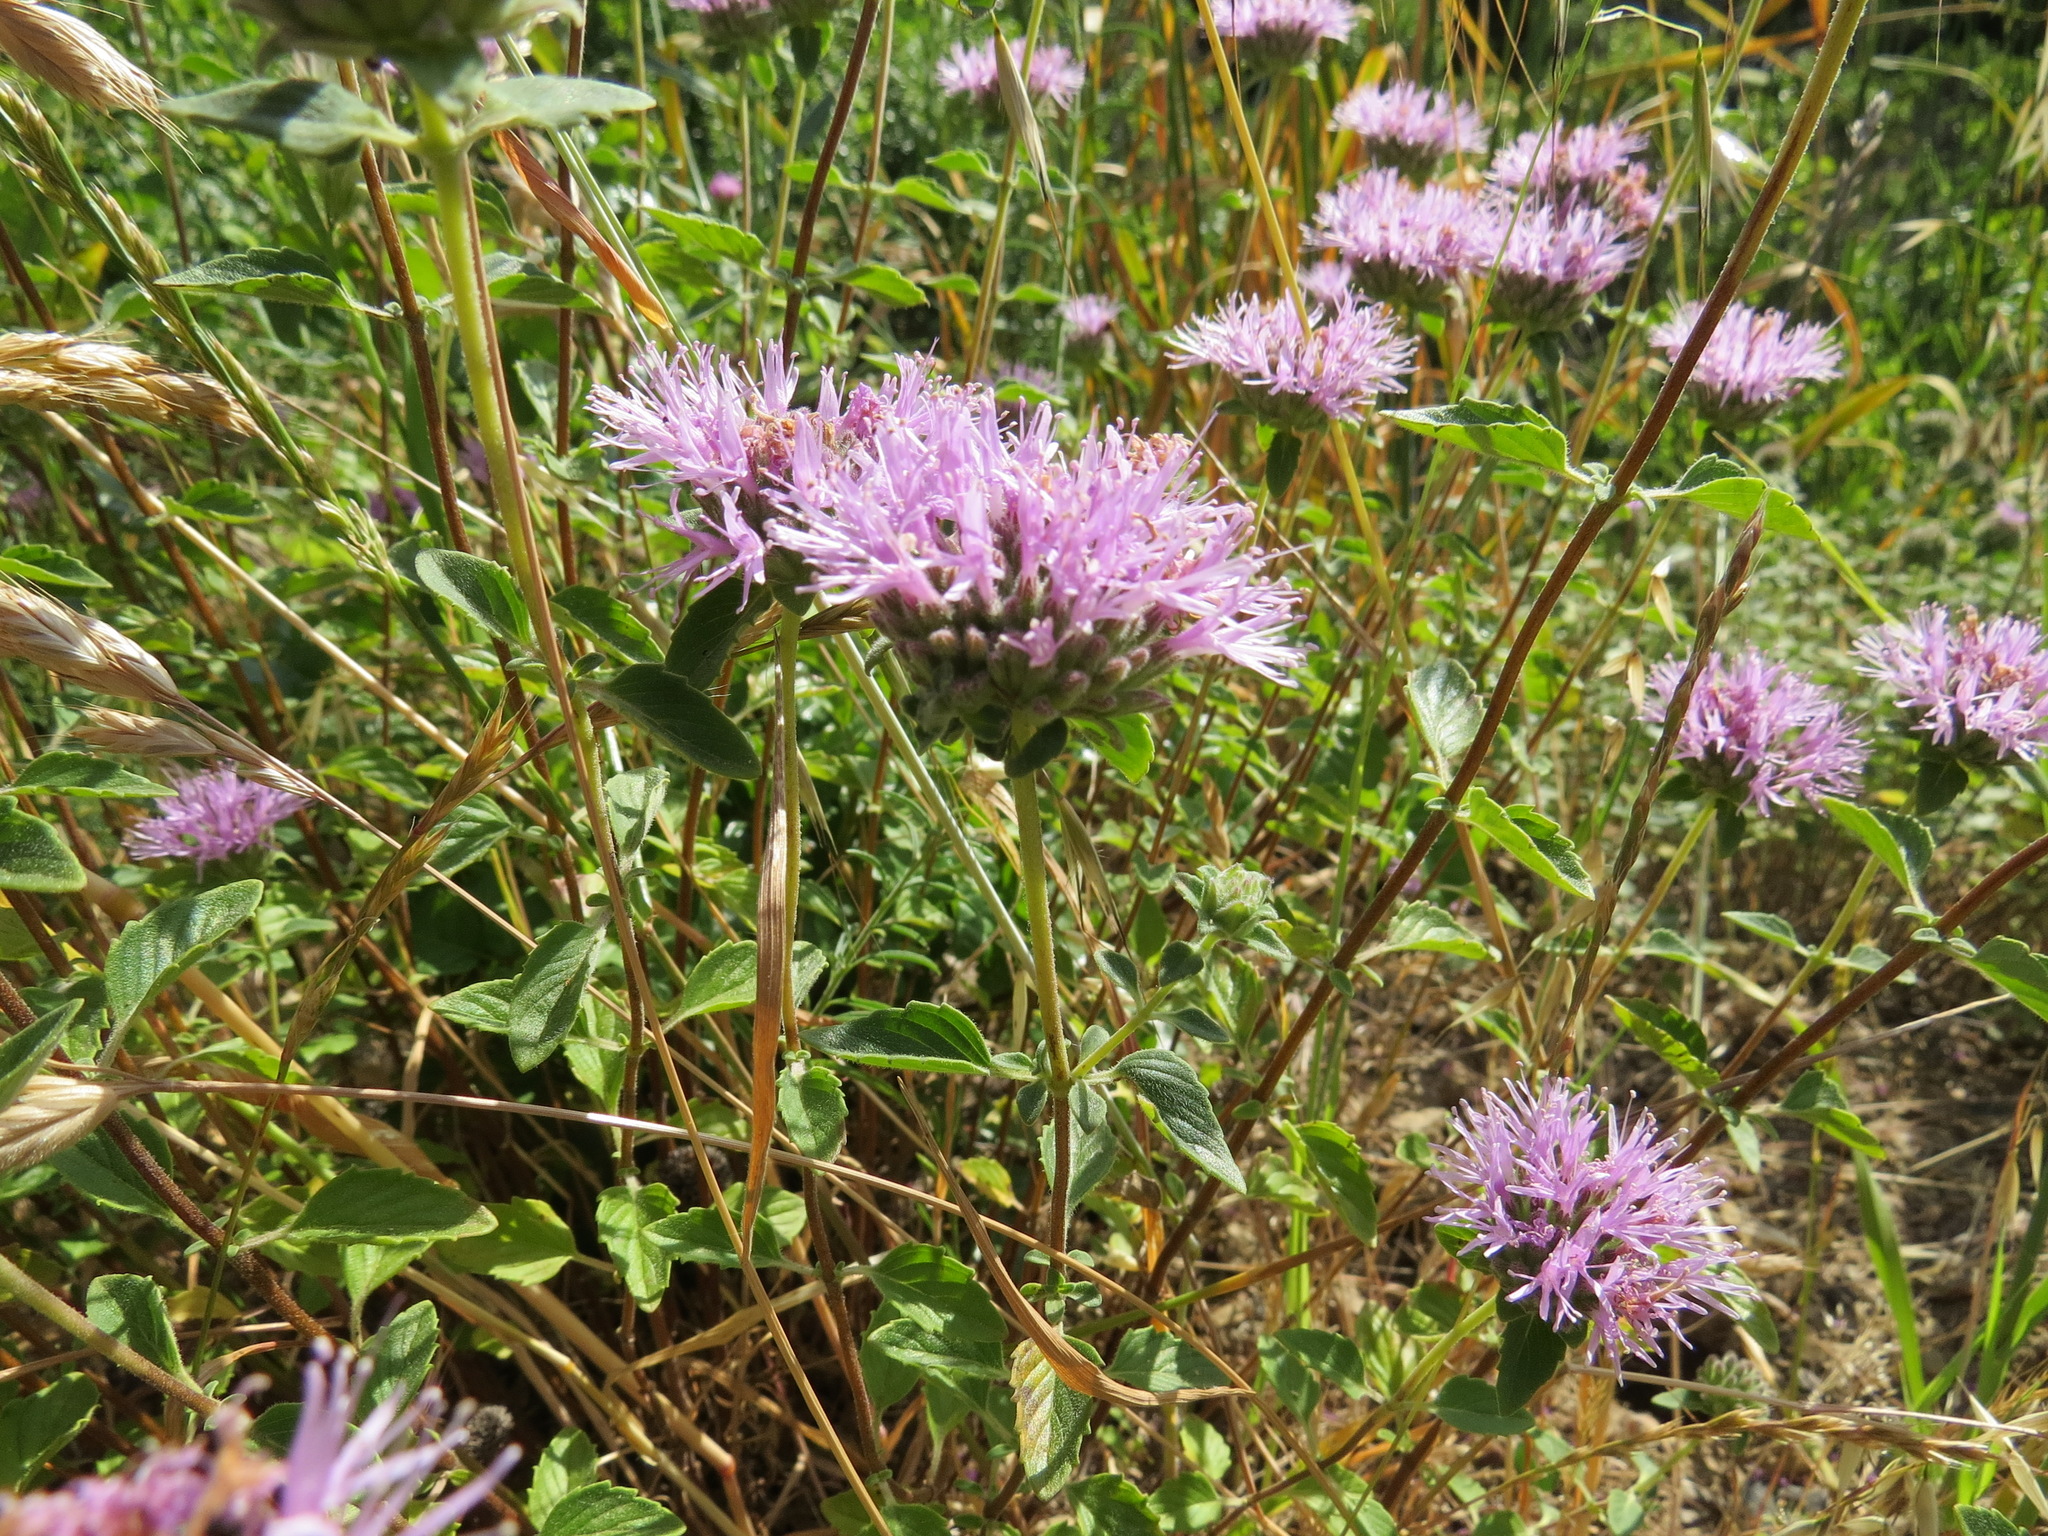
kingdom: Plantae
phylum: Tracheophyta
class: Magnoliopsida
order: Lamiales
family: Lamiaceae
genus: Monardella
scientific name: Monardella odoratissima
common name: Pacific monardella
